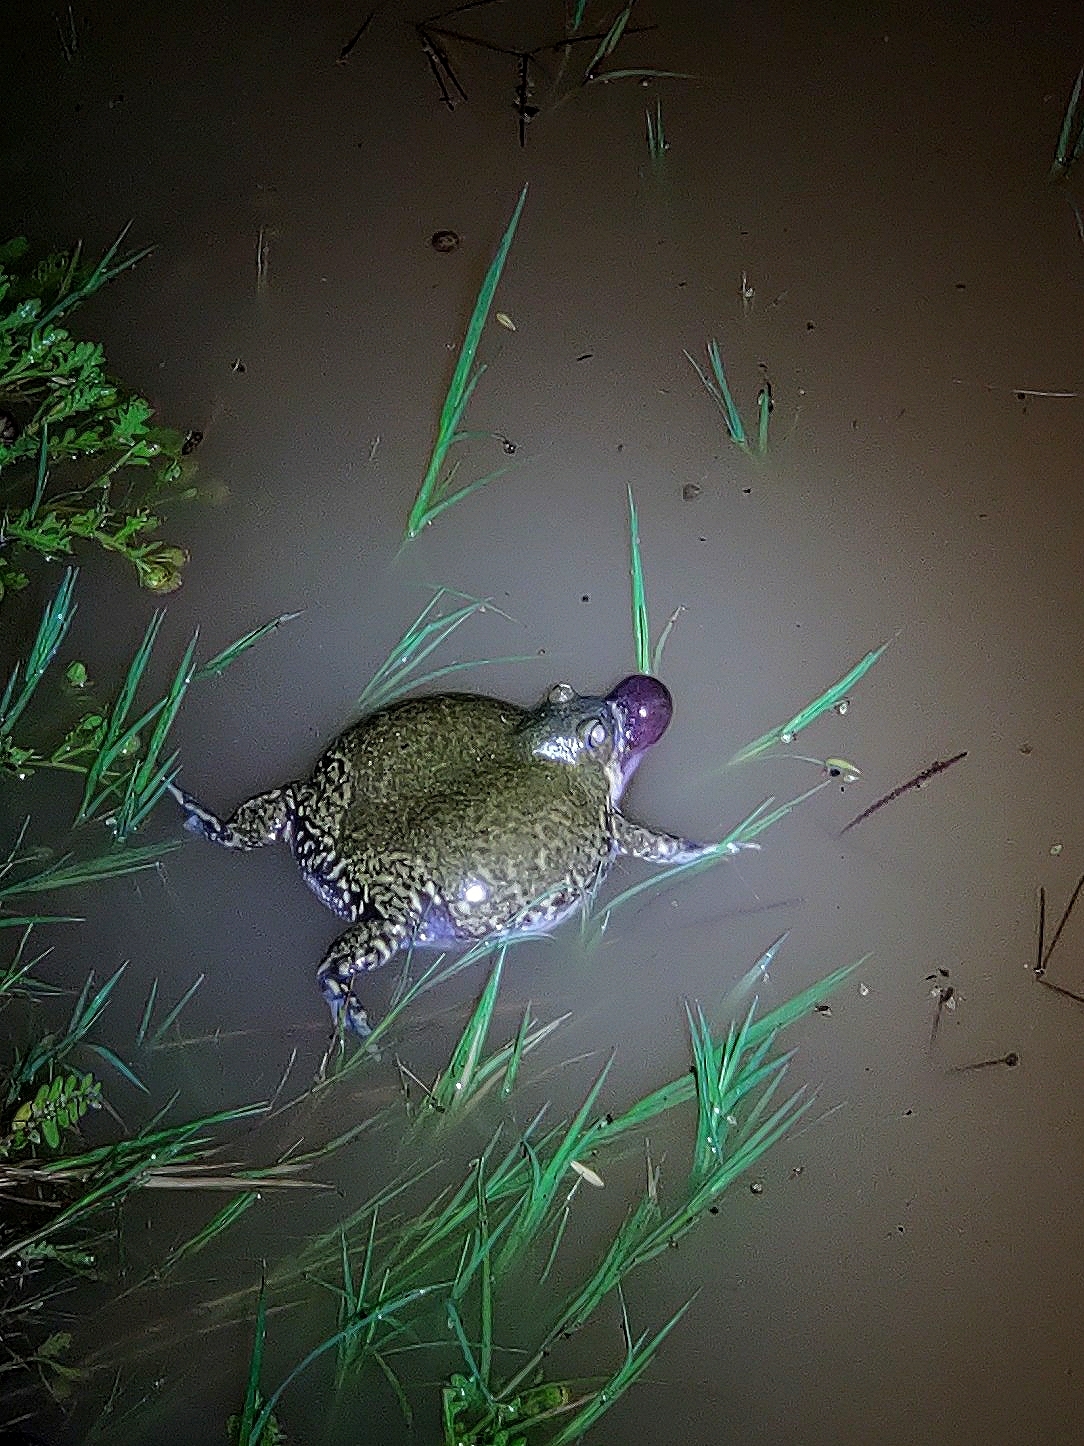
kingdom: Animalia
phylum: Chordata
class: Amphibia
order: Anura
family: Microhylidae
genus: Uperodon
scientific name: Uperodon globulosus
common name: Indian globular frog
